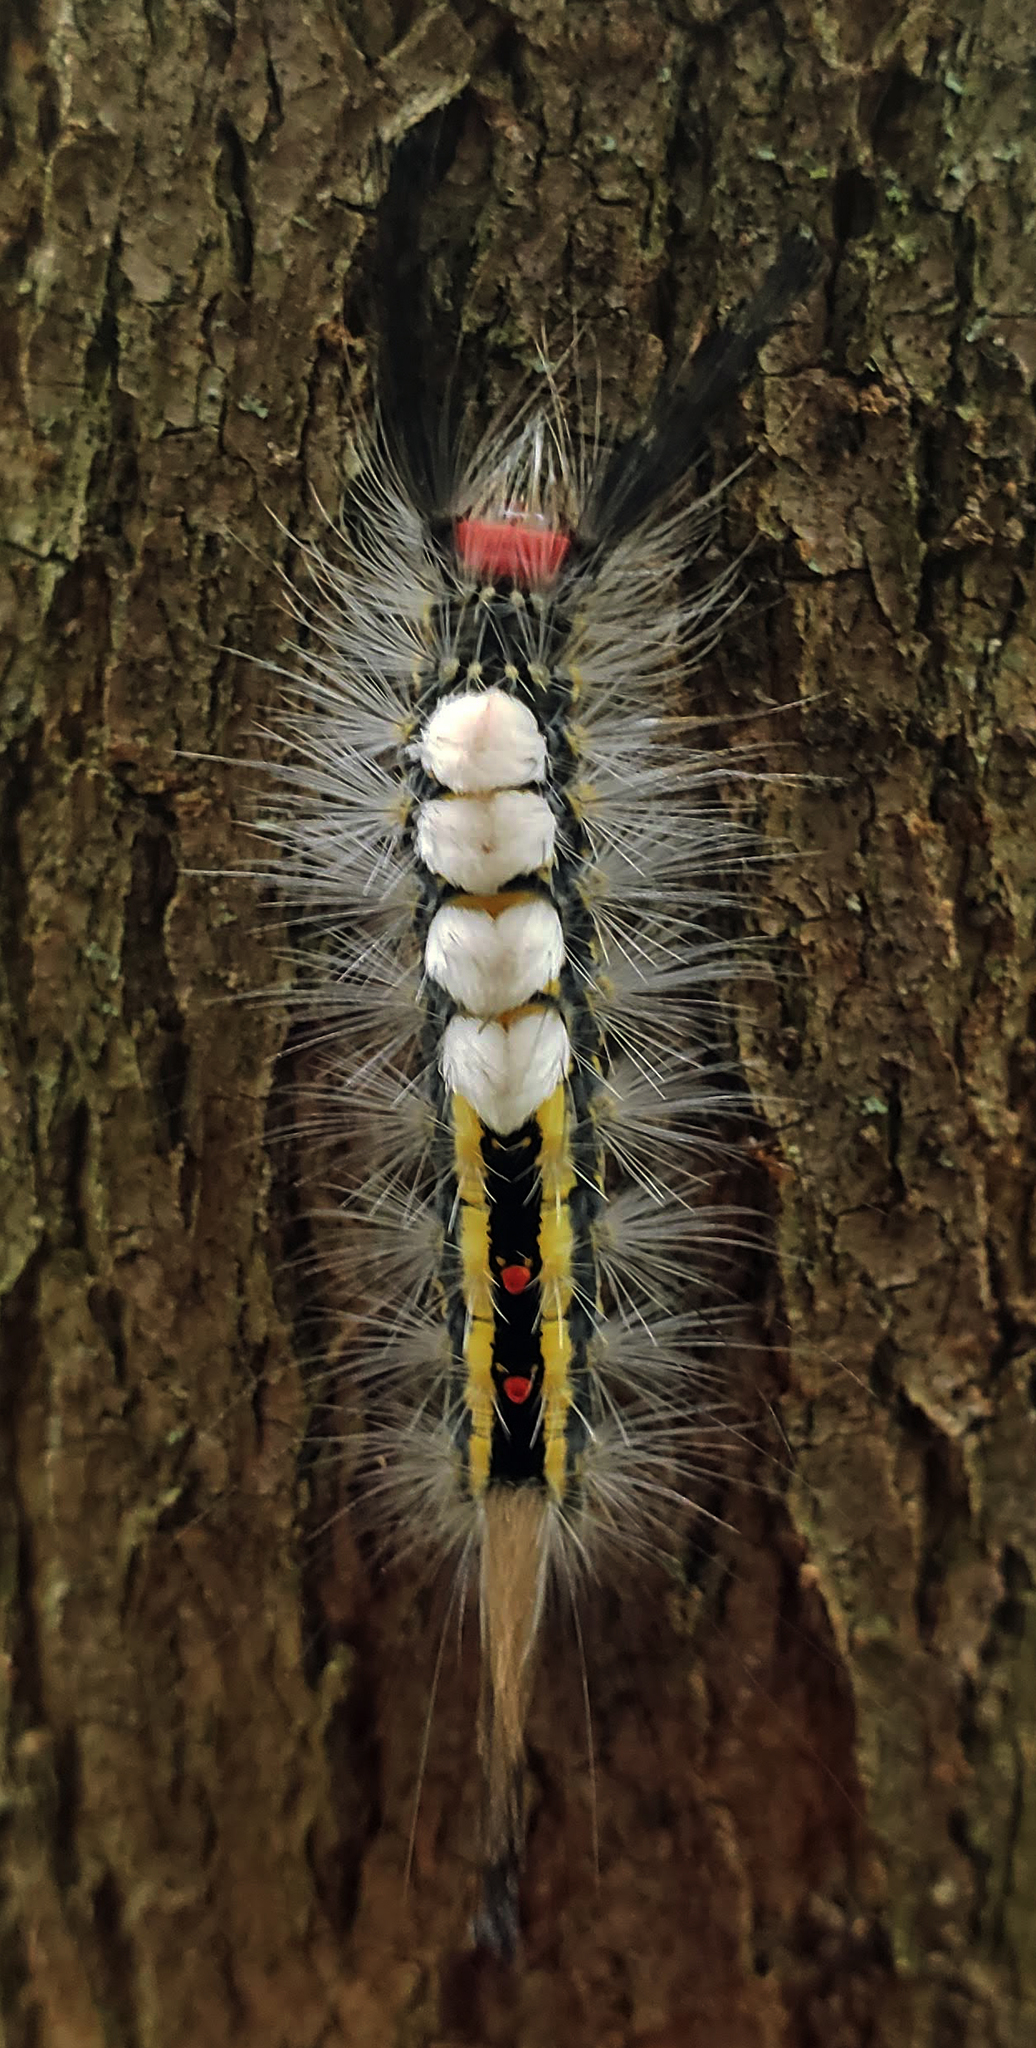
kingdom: Animalia
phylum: Arthropoda
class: Insecta
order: Lepidoptera
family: Erebidae
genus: Orgyia
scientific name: Orgyia leucostigma
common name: White-marked tussock moth
